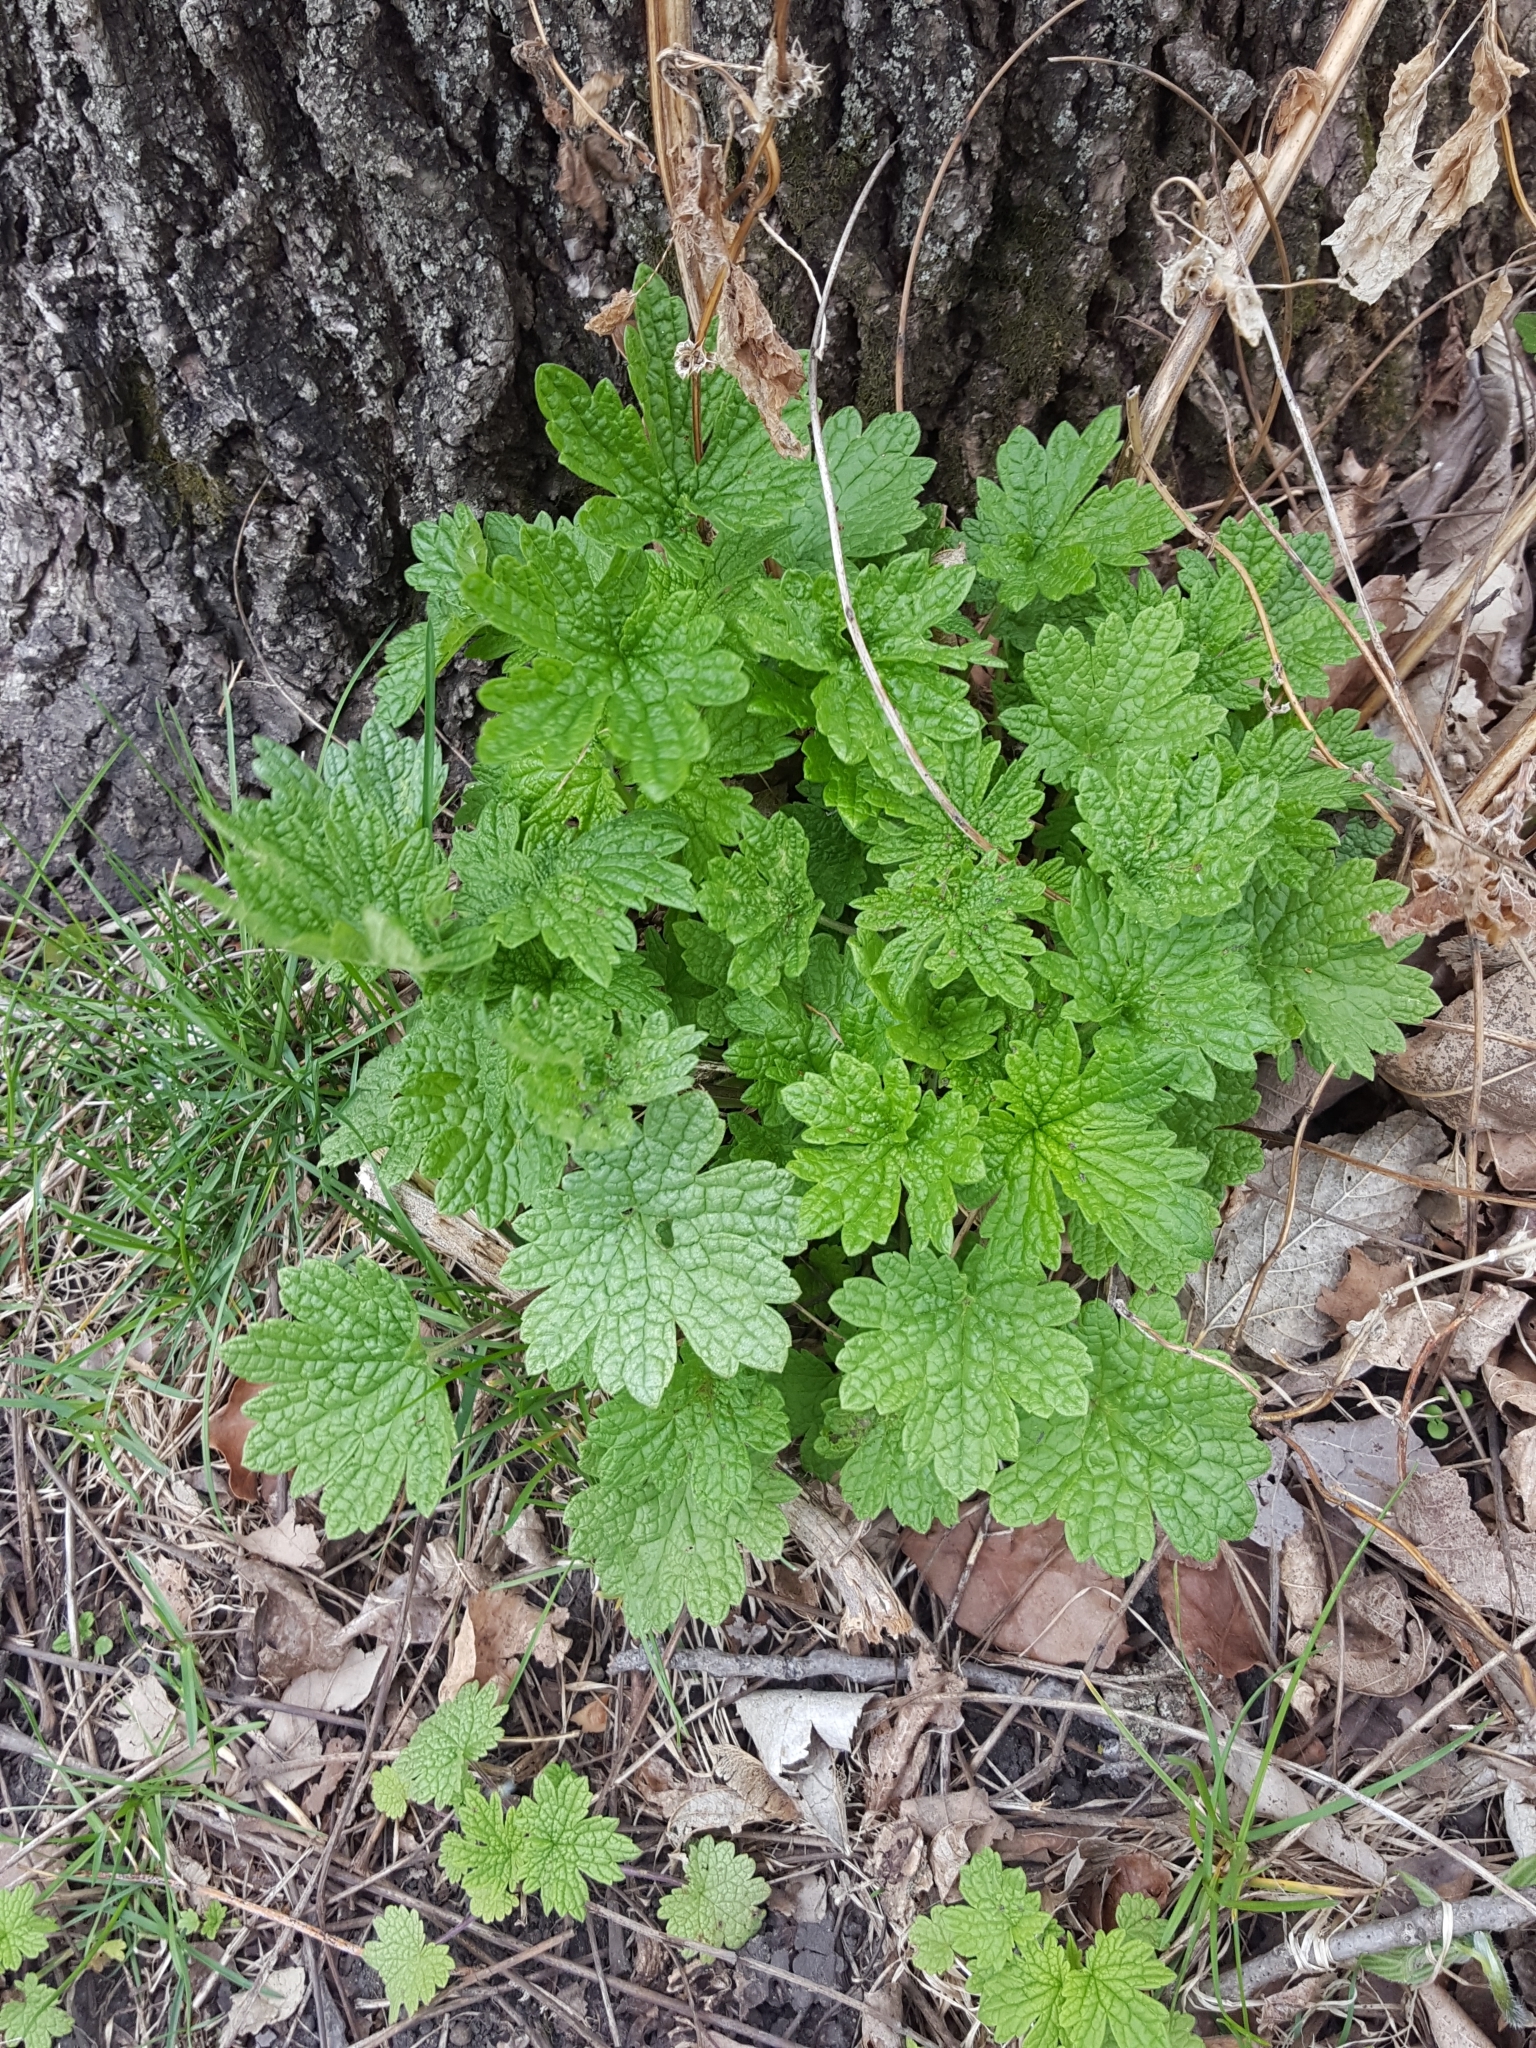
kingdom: Plantae
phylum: Tracheophyta
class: Magnoliopsida
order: Lamiales
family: Lamiaceae
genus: Leonurus
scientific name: Leonurus cardiaca
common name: Motherwort
